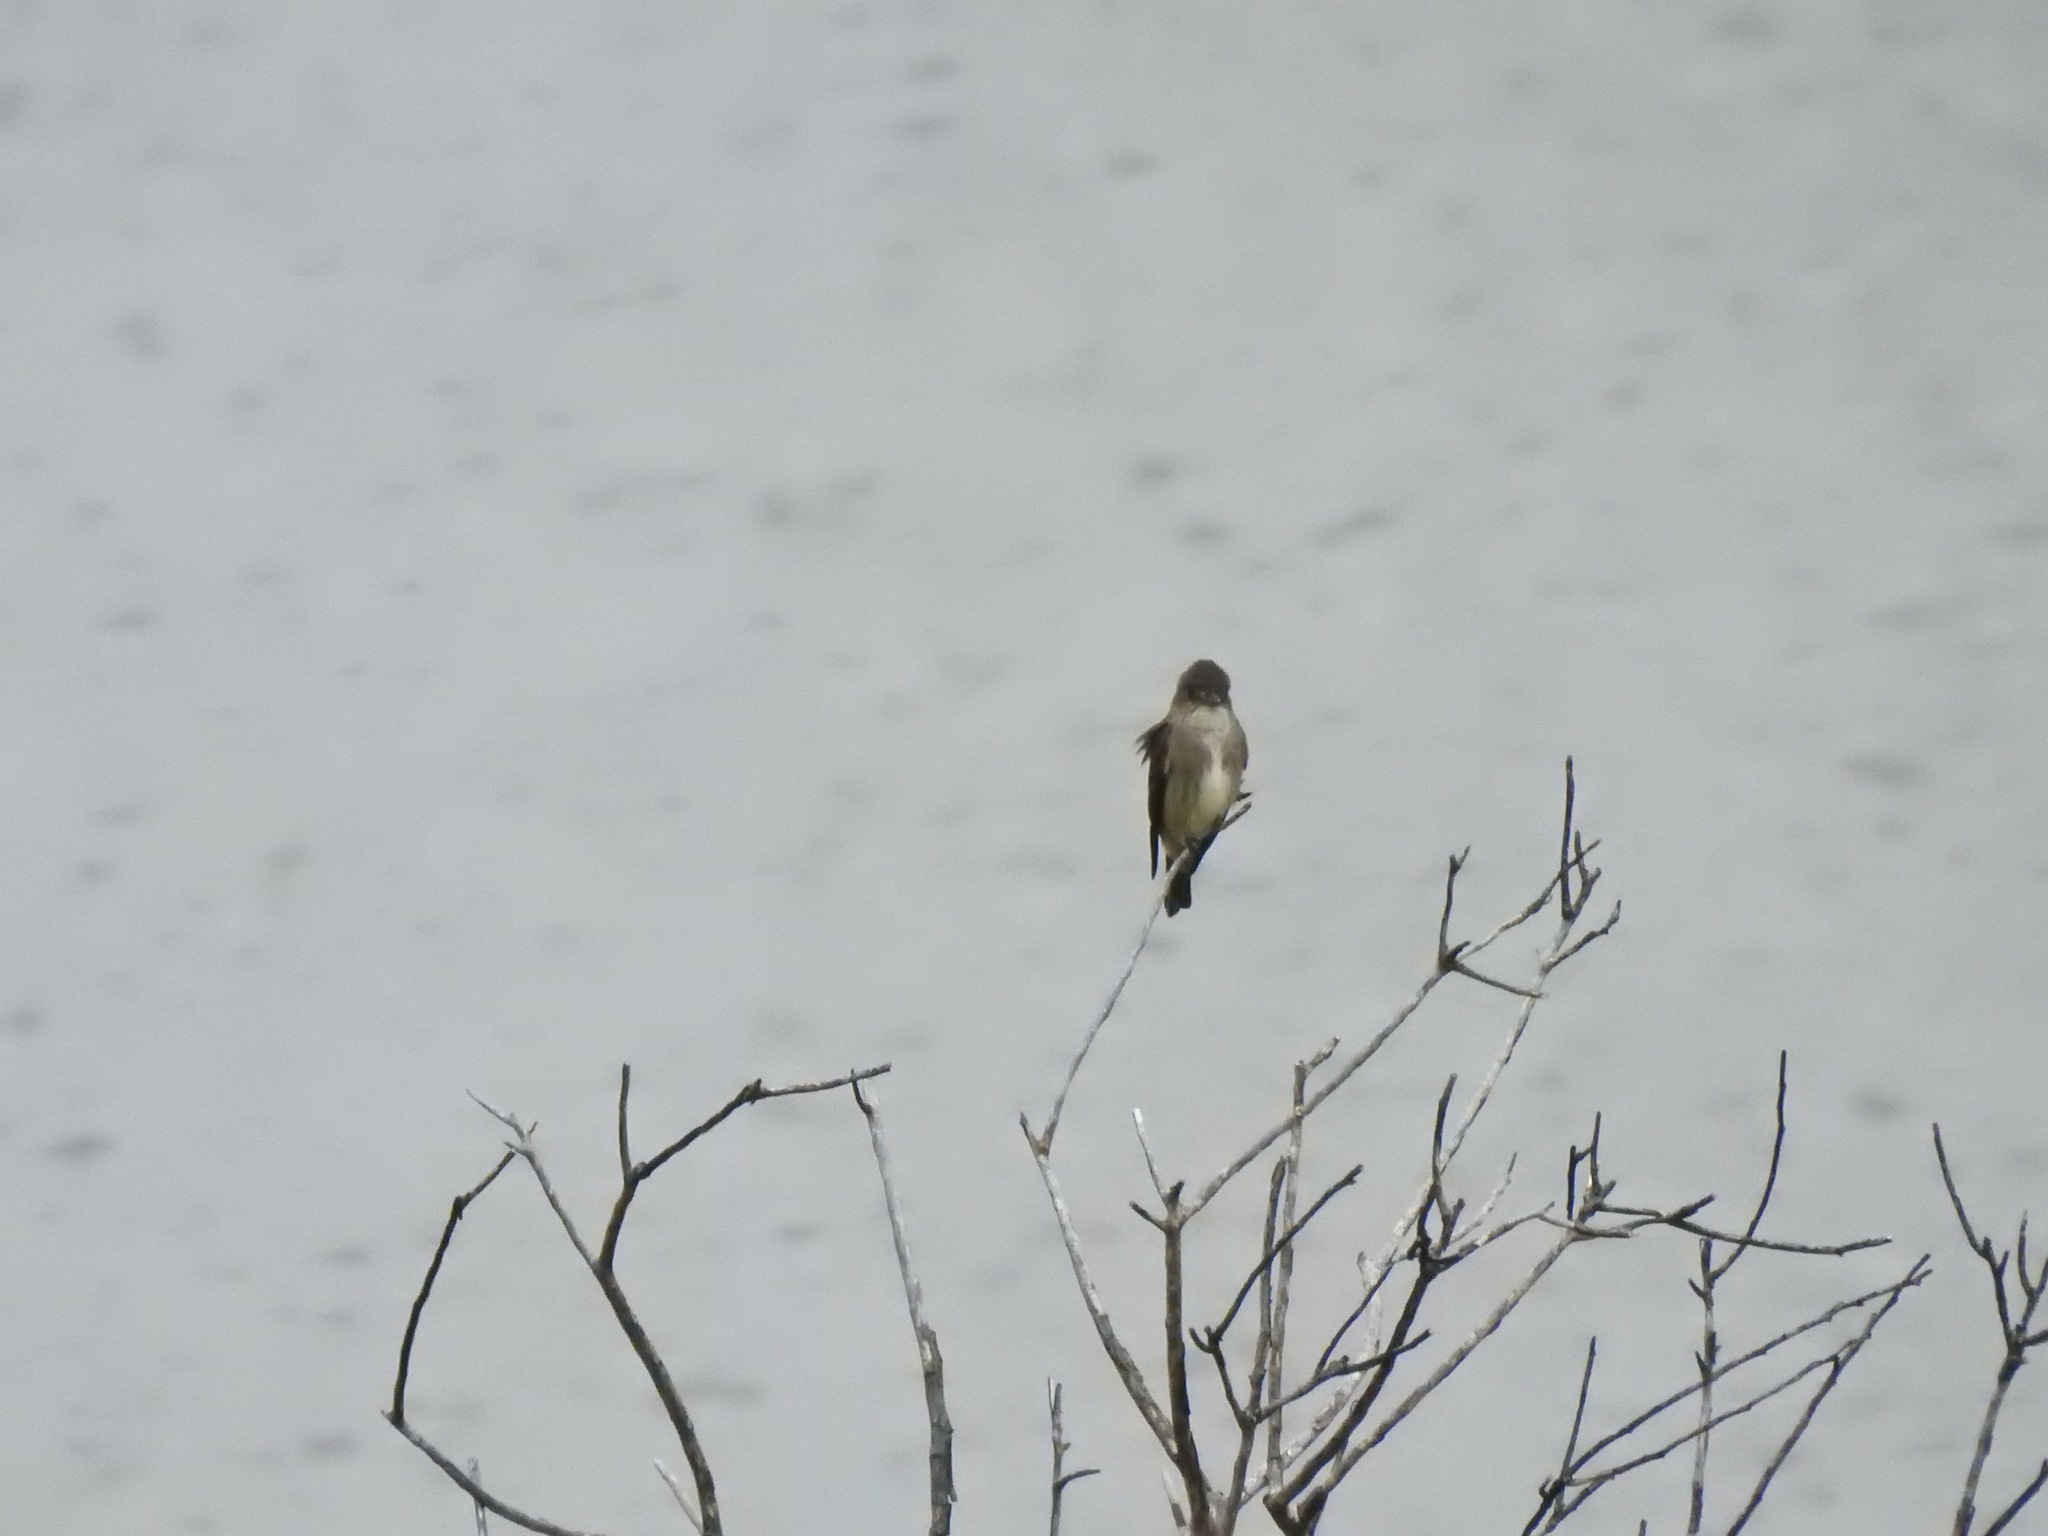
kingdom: Animalia
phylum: Chordata
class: Aves
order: Passeriformes
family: Tyrannidae
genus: Contopus
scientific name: Contopus cooperi
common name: Olive-sided flycatcher
